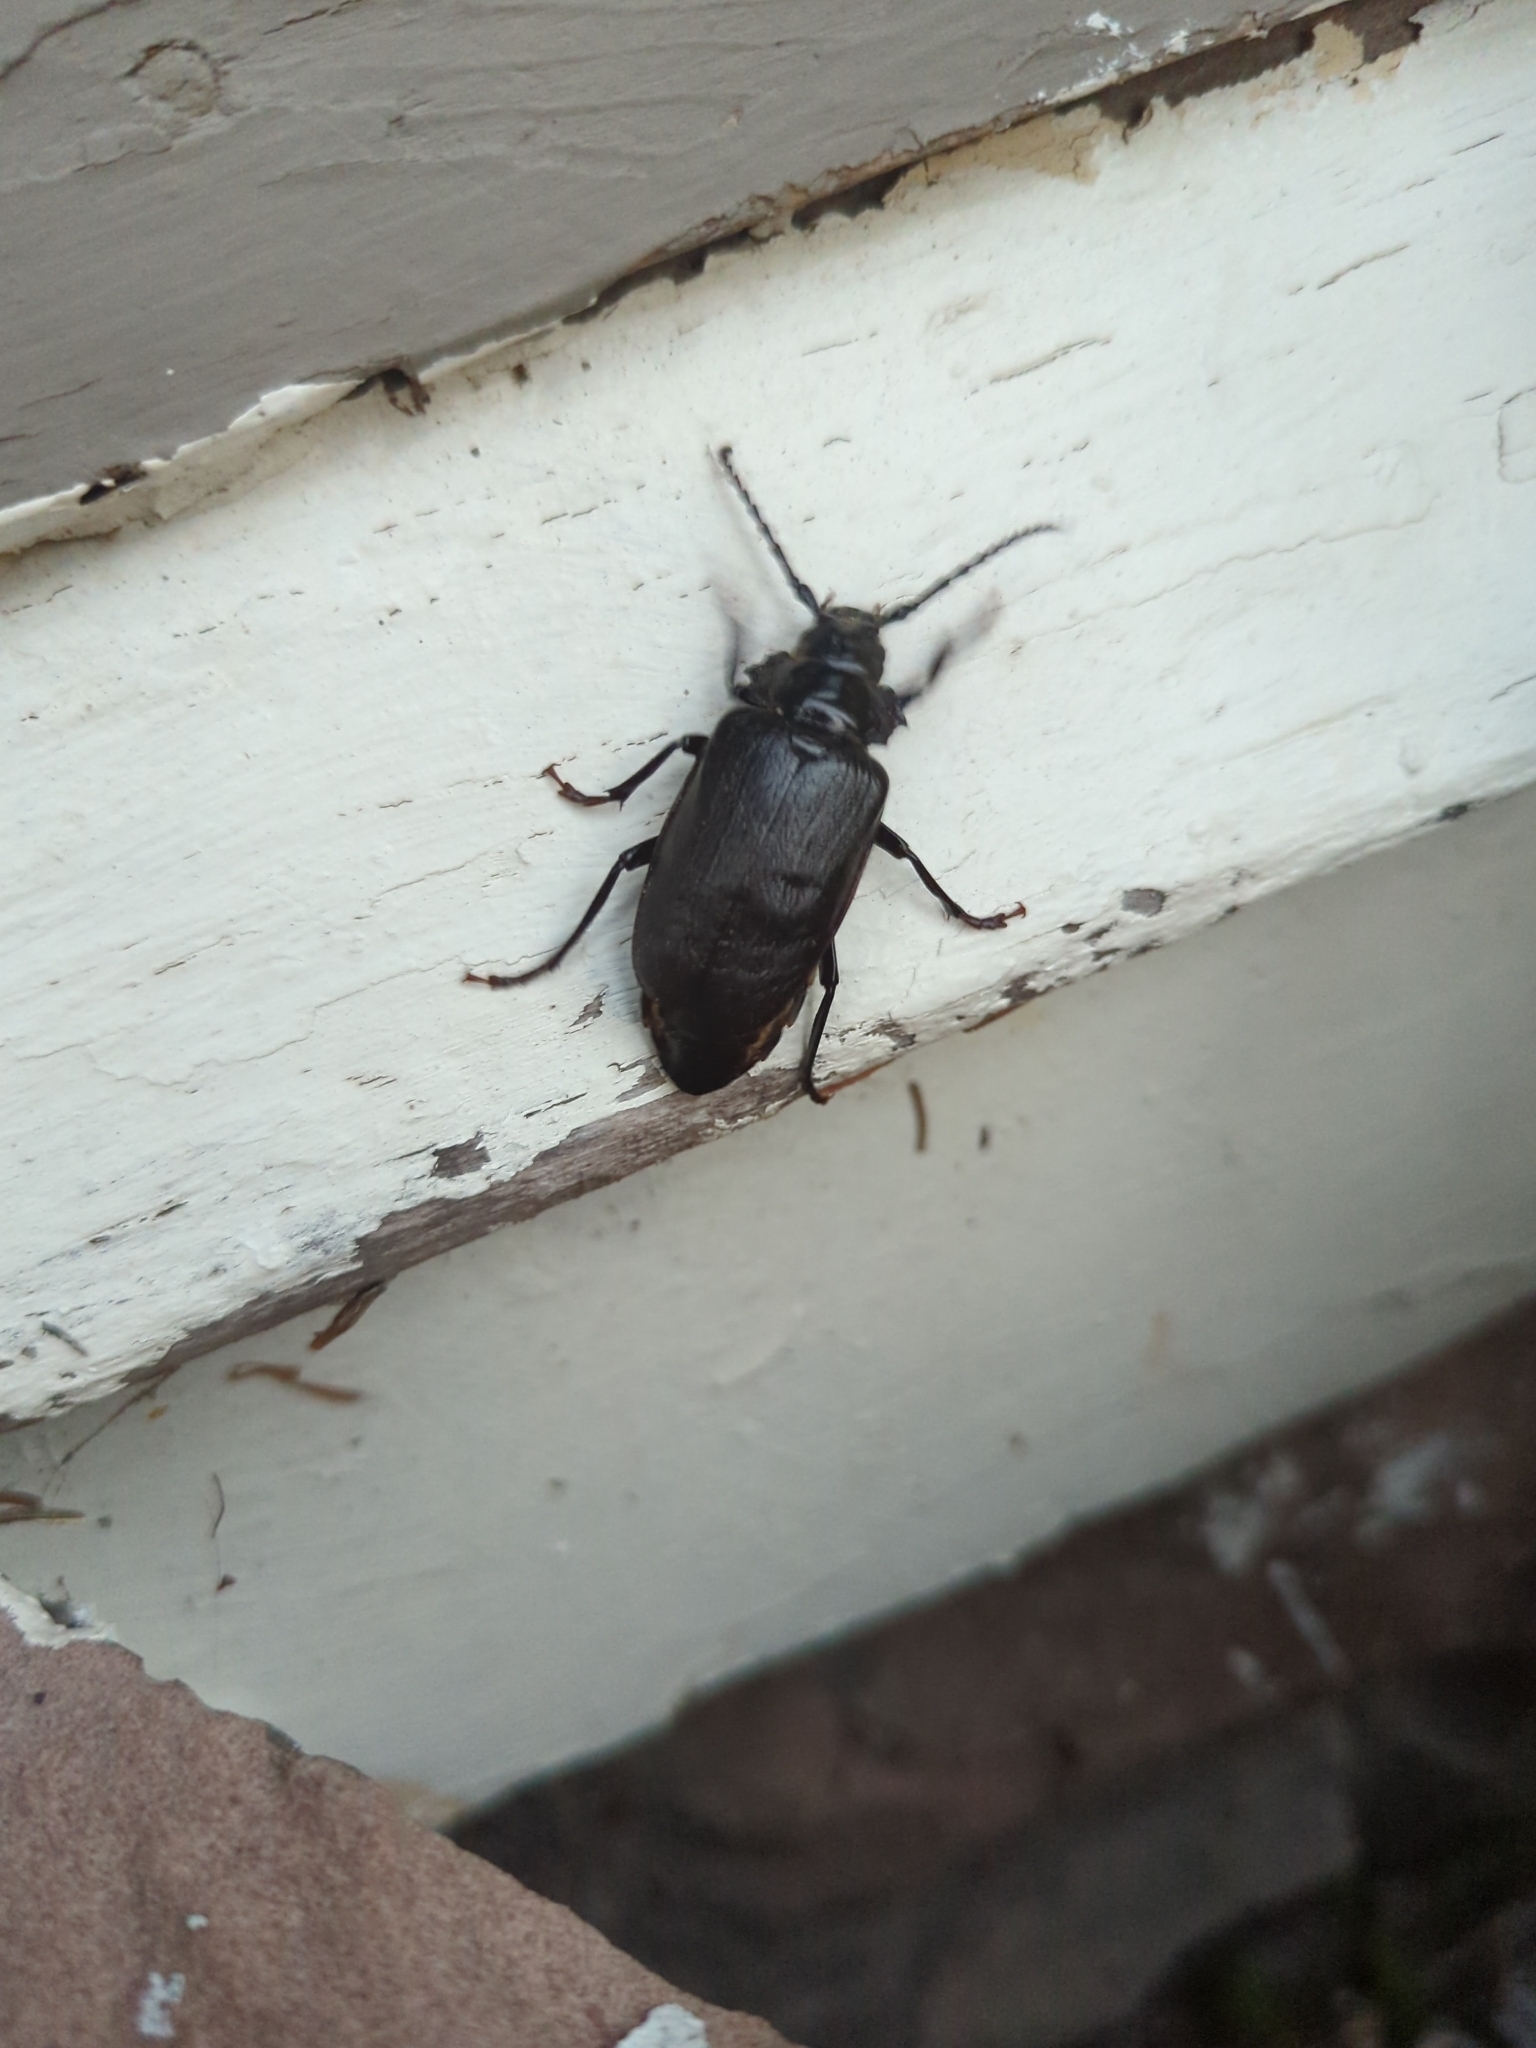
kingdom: Animalia
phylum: Arthropoda
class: Insecta
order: Coleoptera
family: Cerambycidae
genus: Prionus
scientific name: Prionus laticollis
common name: Broad necked prionus
